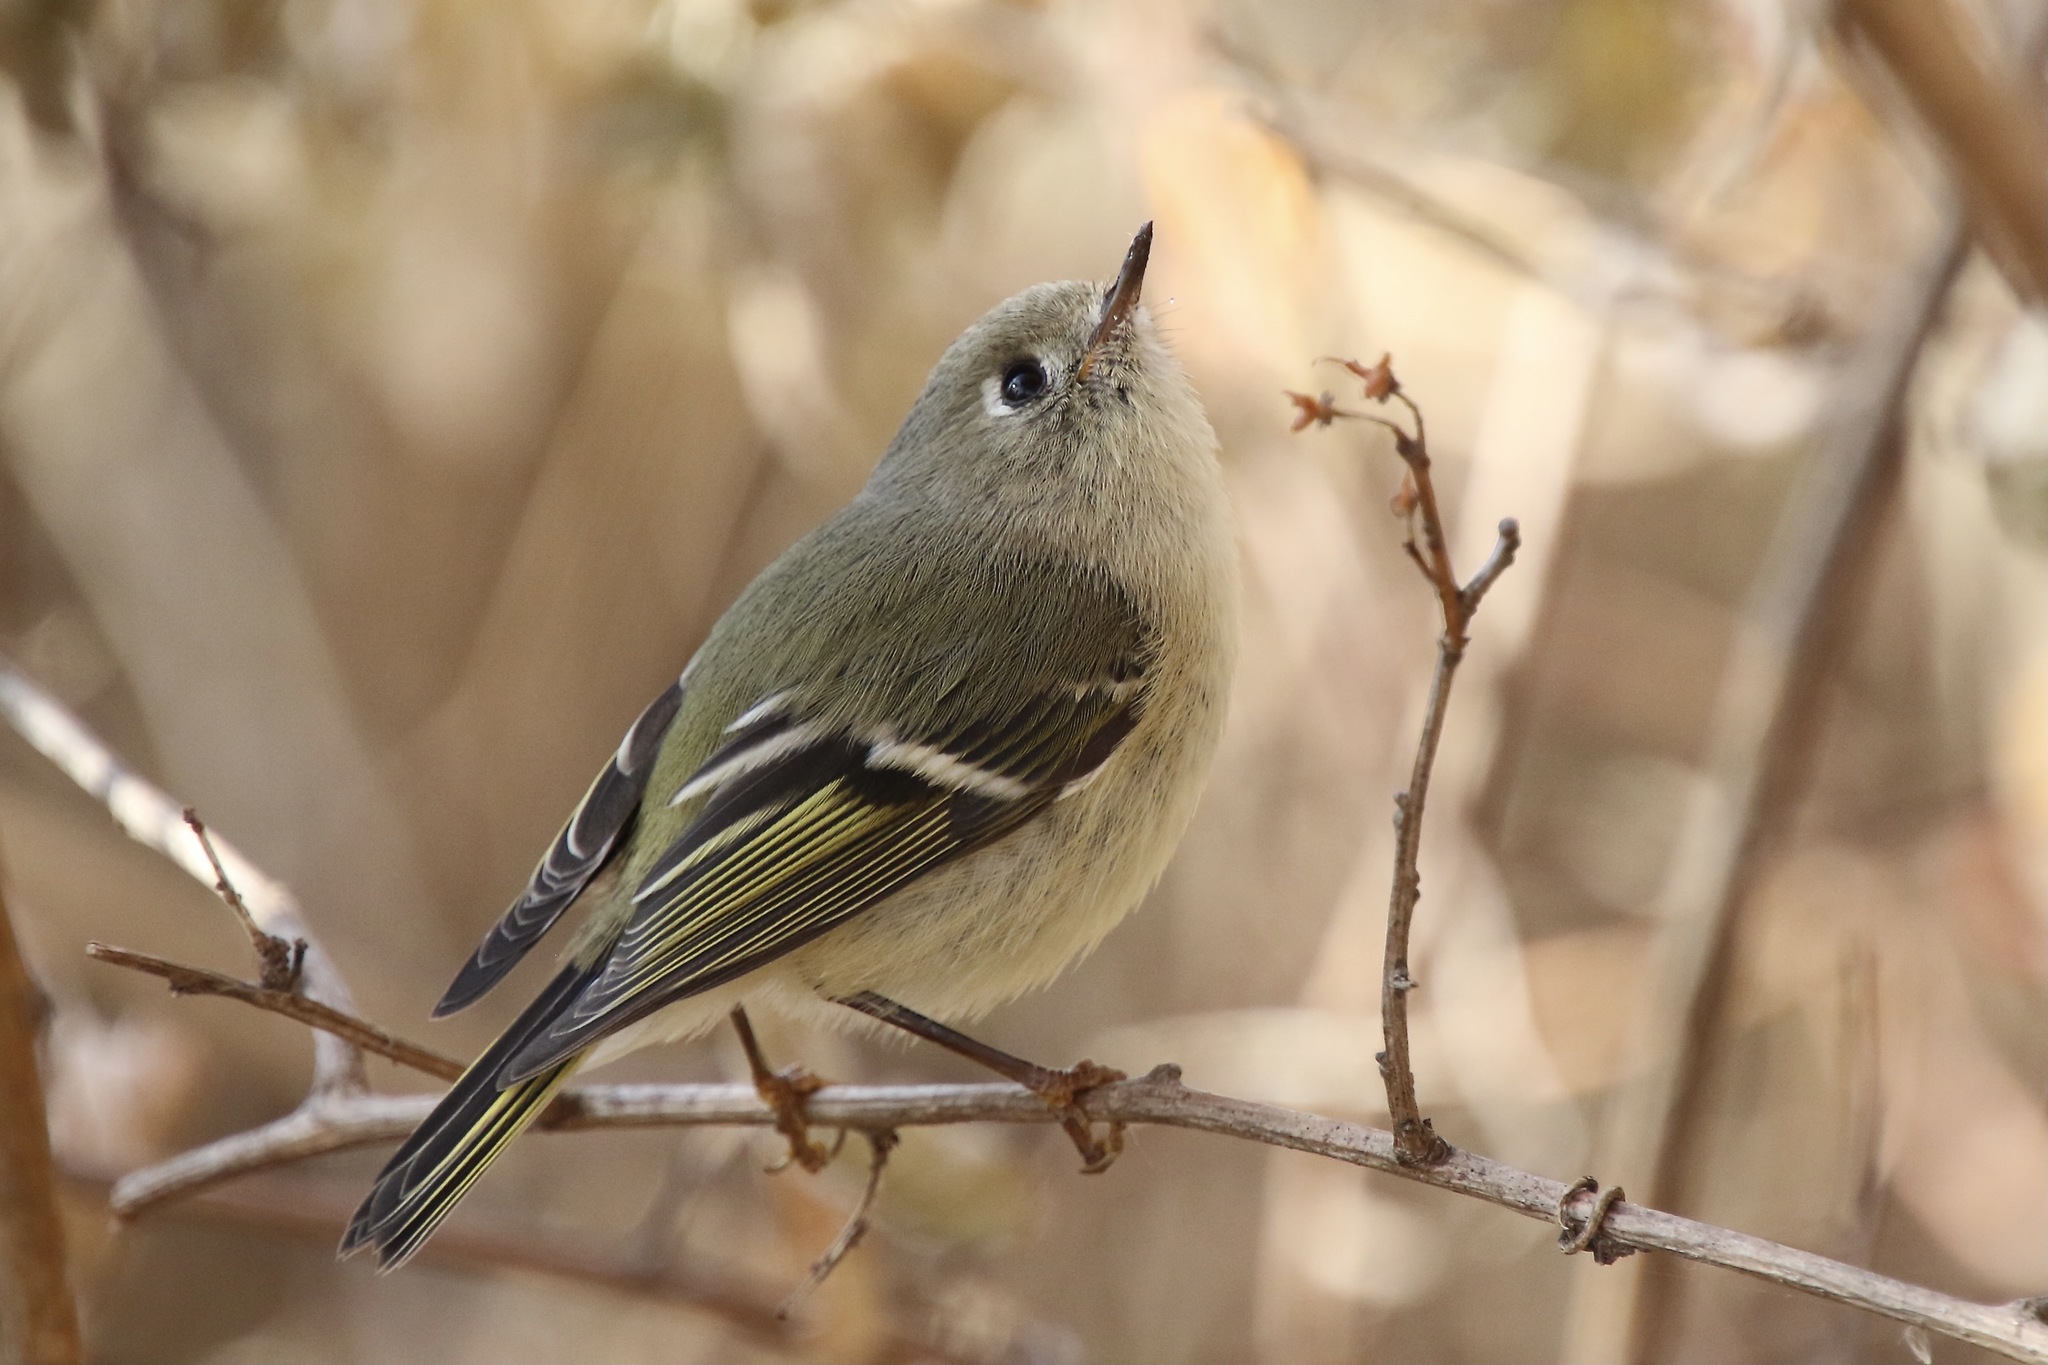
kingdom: Animalia
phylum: Chordata
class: Aves
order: Passeriformes
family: Regulidae
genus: Regulus
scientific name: Regulus calendula
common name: Ruby-crowned kinglet
